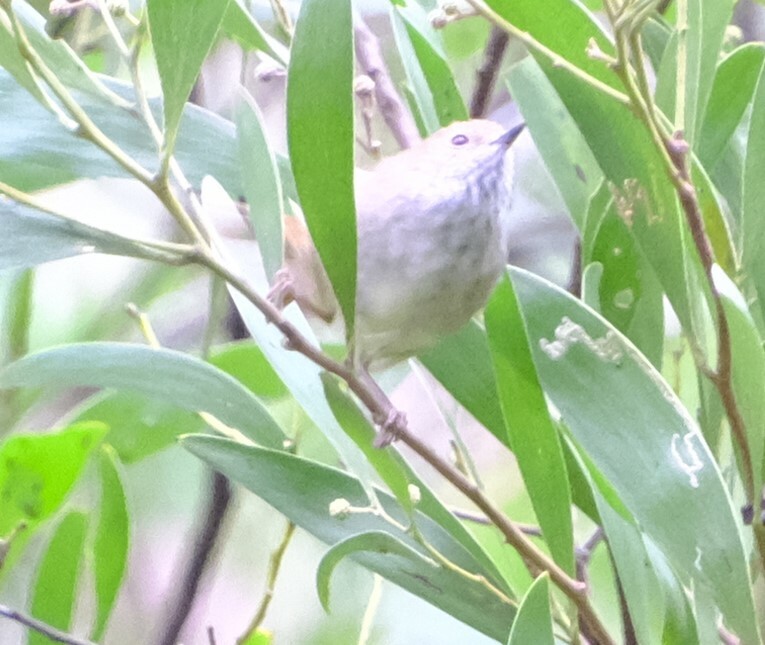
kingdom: Animalia
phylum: Chordata
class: Aves
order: Passeriformes
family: Acanthizidae
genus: Acanthiza
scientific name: Acanthiza pusilla
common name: Brown thornbill
